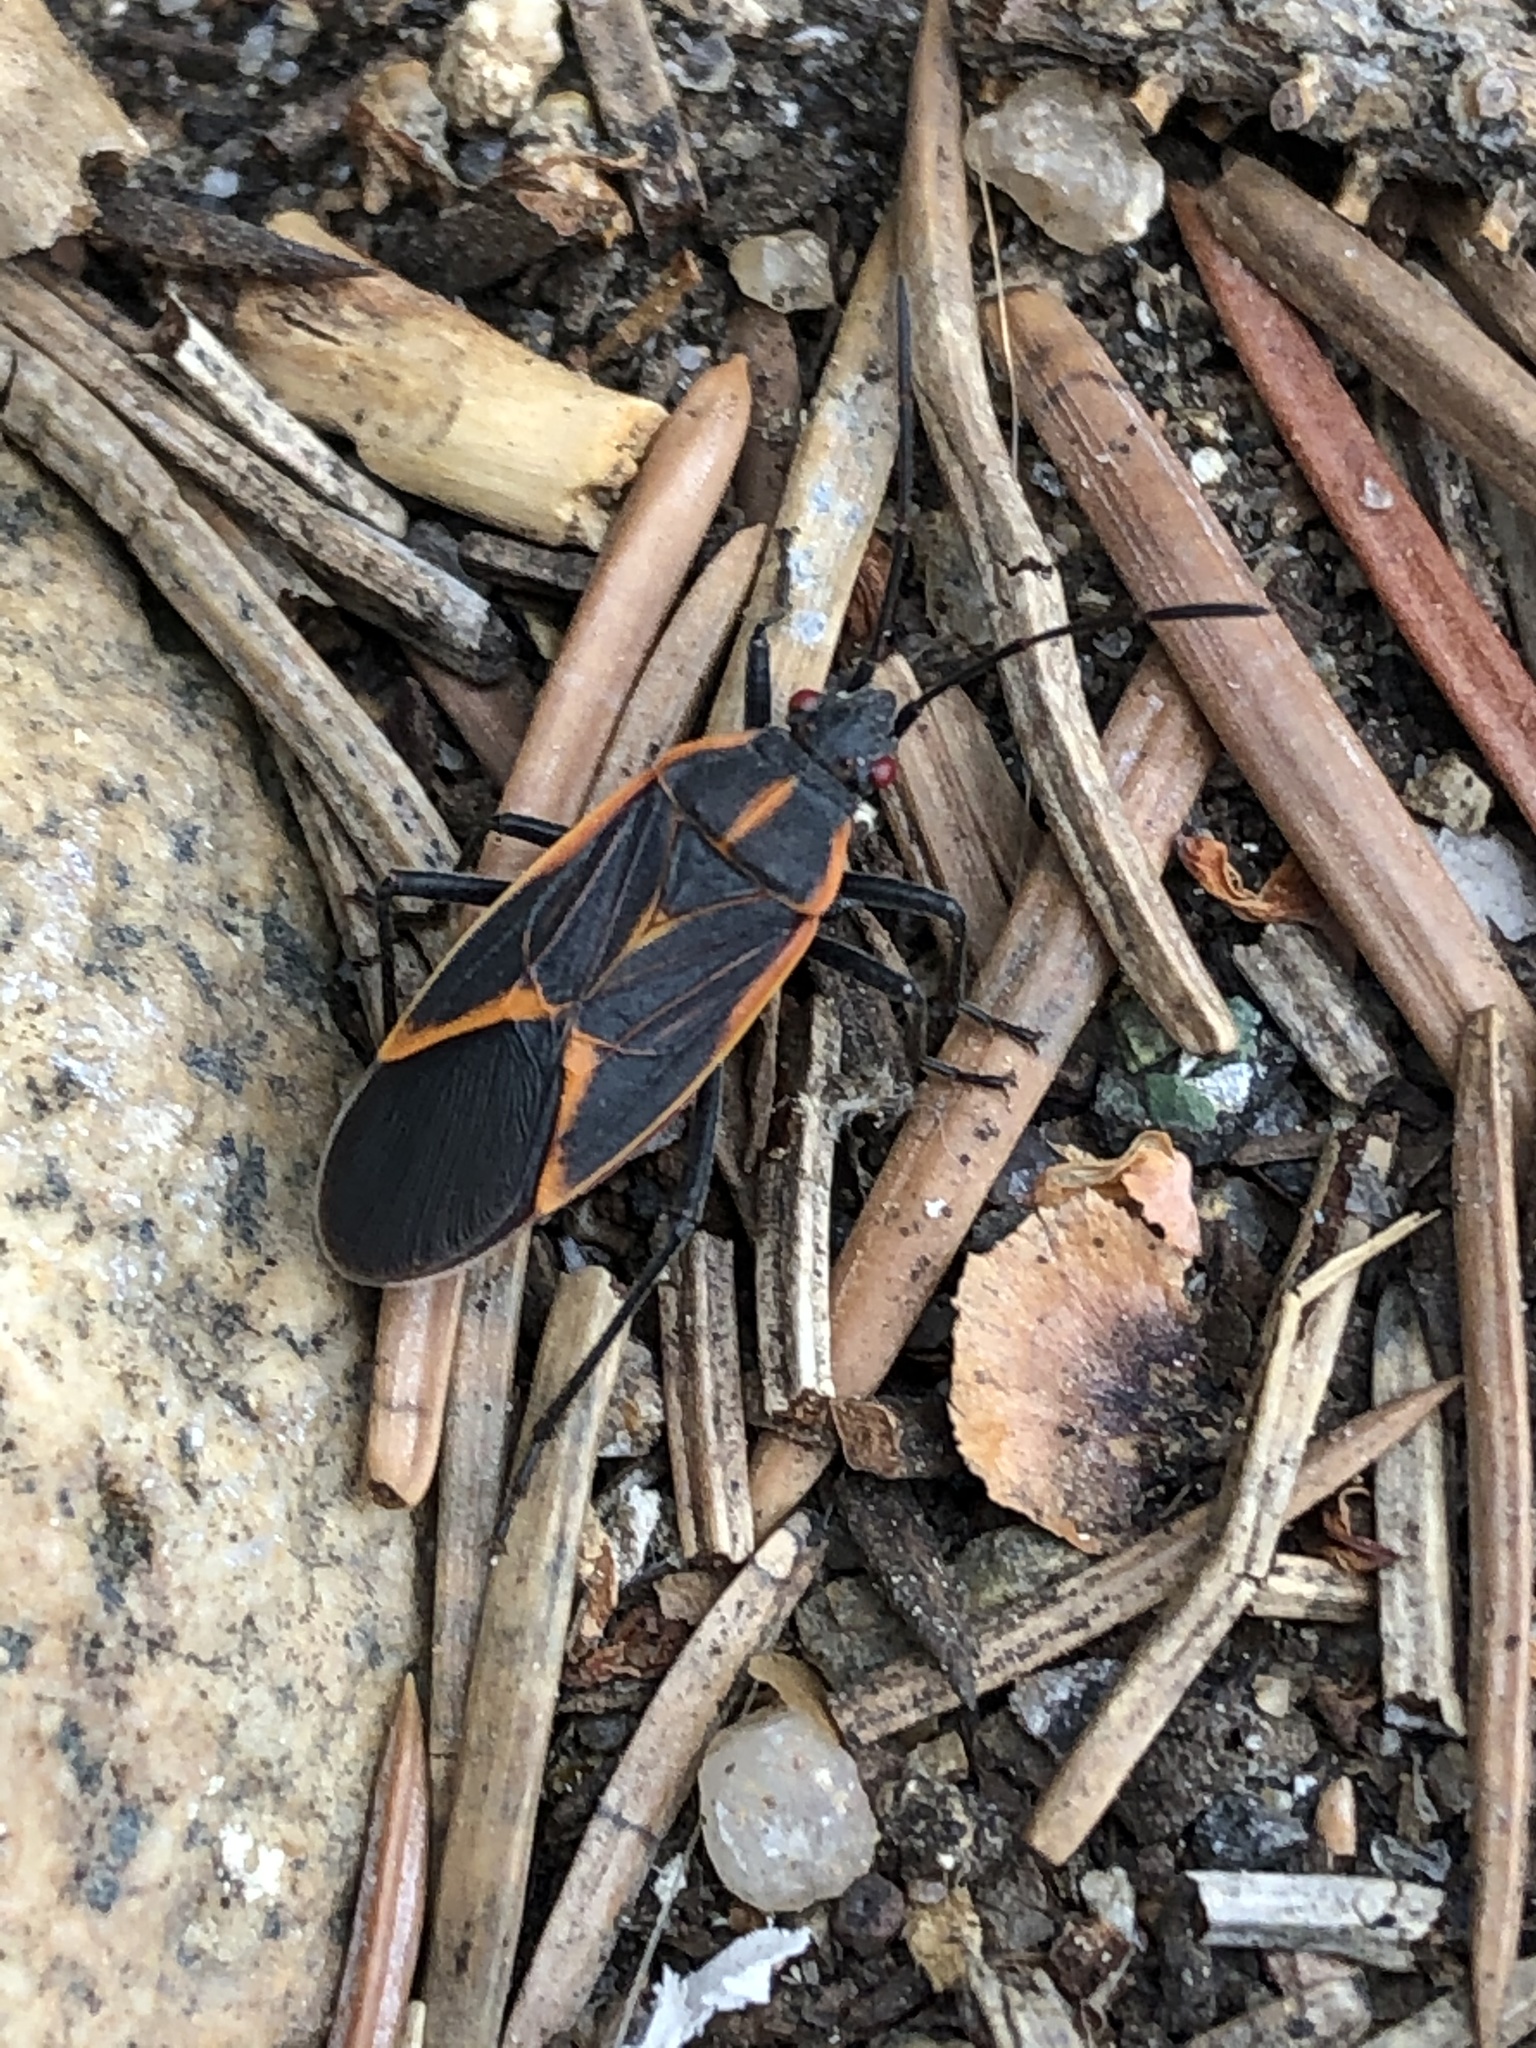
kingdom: Animalia
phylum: Arthropoda
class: Insecta
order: Hemiptera
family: Rhopalidae
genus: Boisea
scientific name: Boisea trivittata
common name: Boxelder bug
